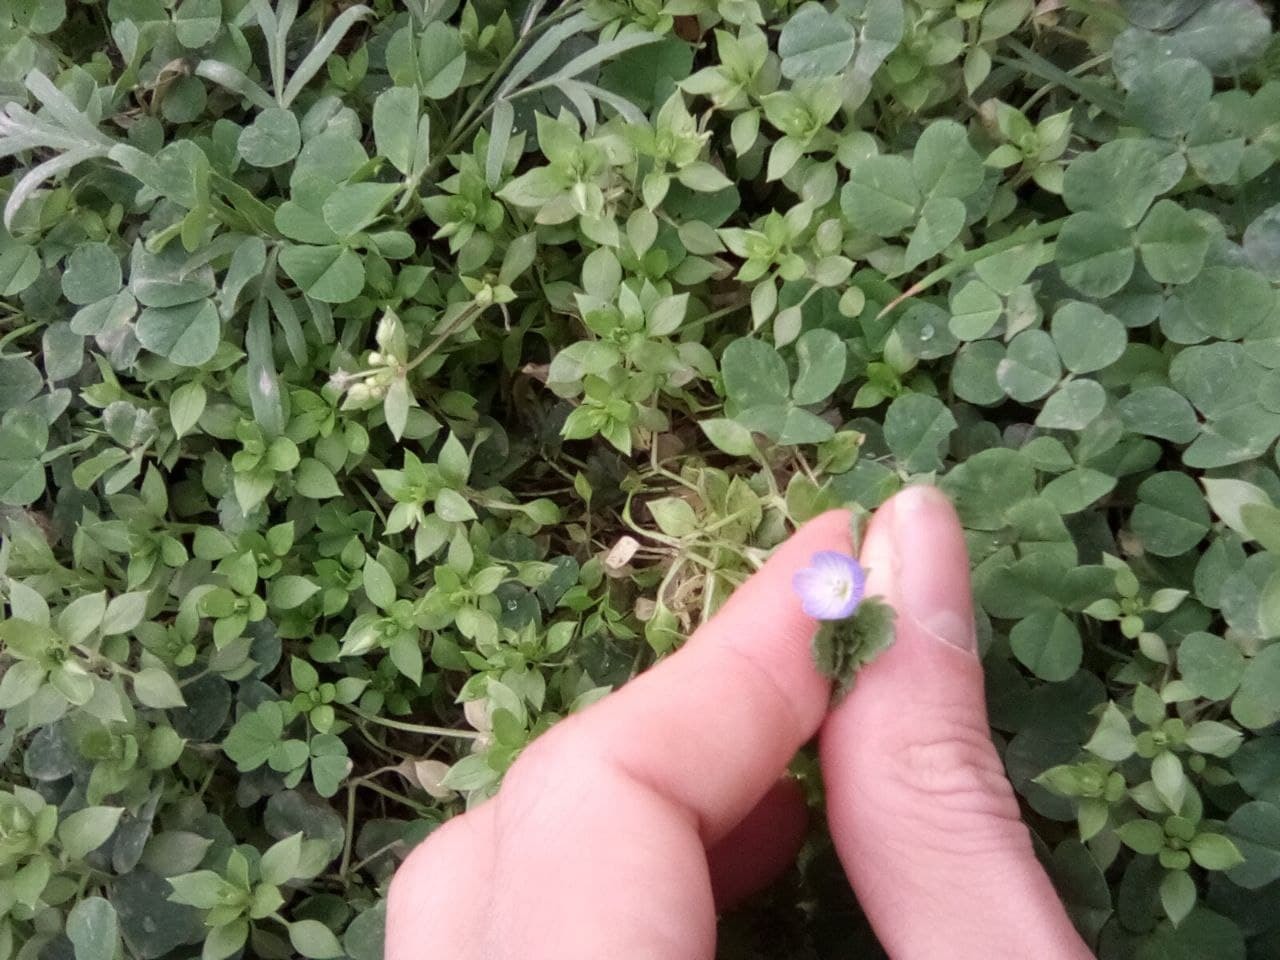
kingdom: Plantae
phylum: Tracheophyta
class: Magnoliopsida
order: Lamiales
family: Plantaginaceae
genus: Veronica
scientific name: Veronica persica
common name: Common field-speedwell
